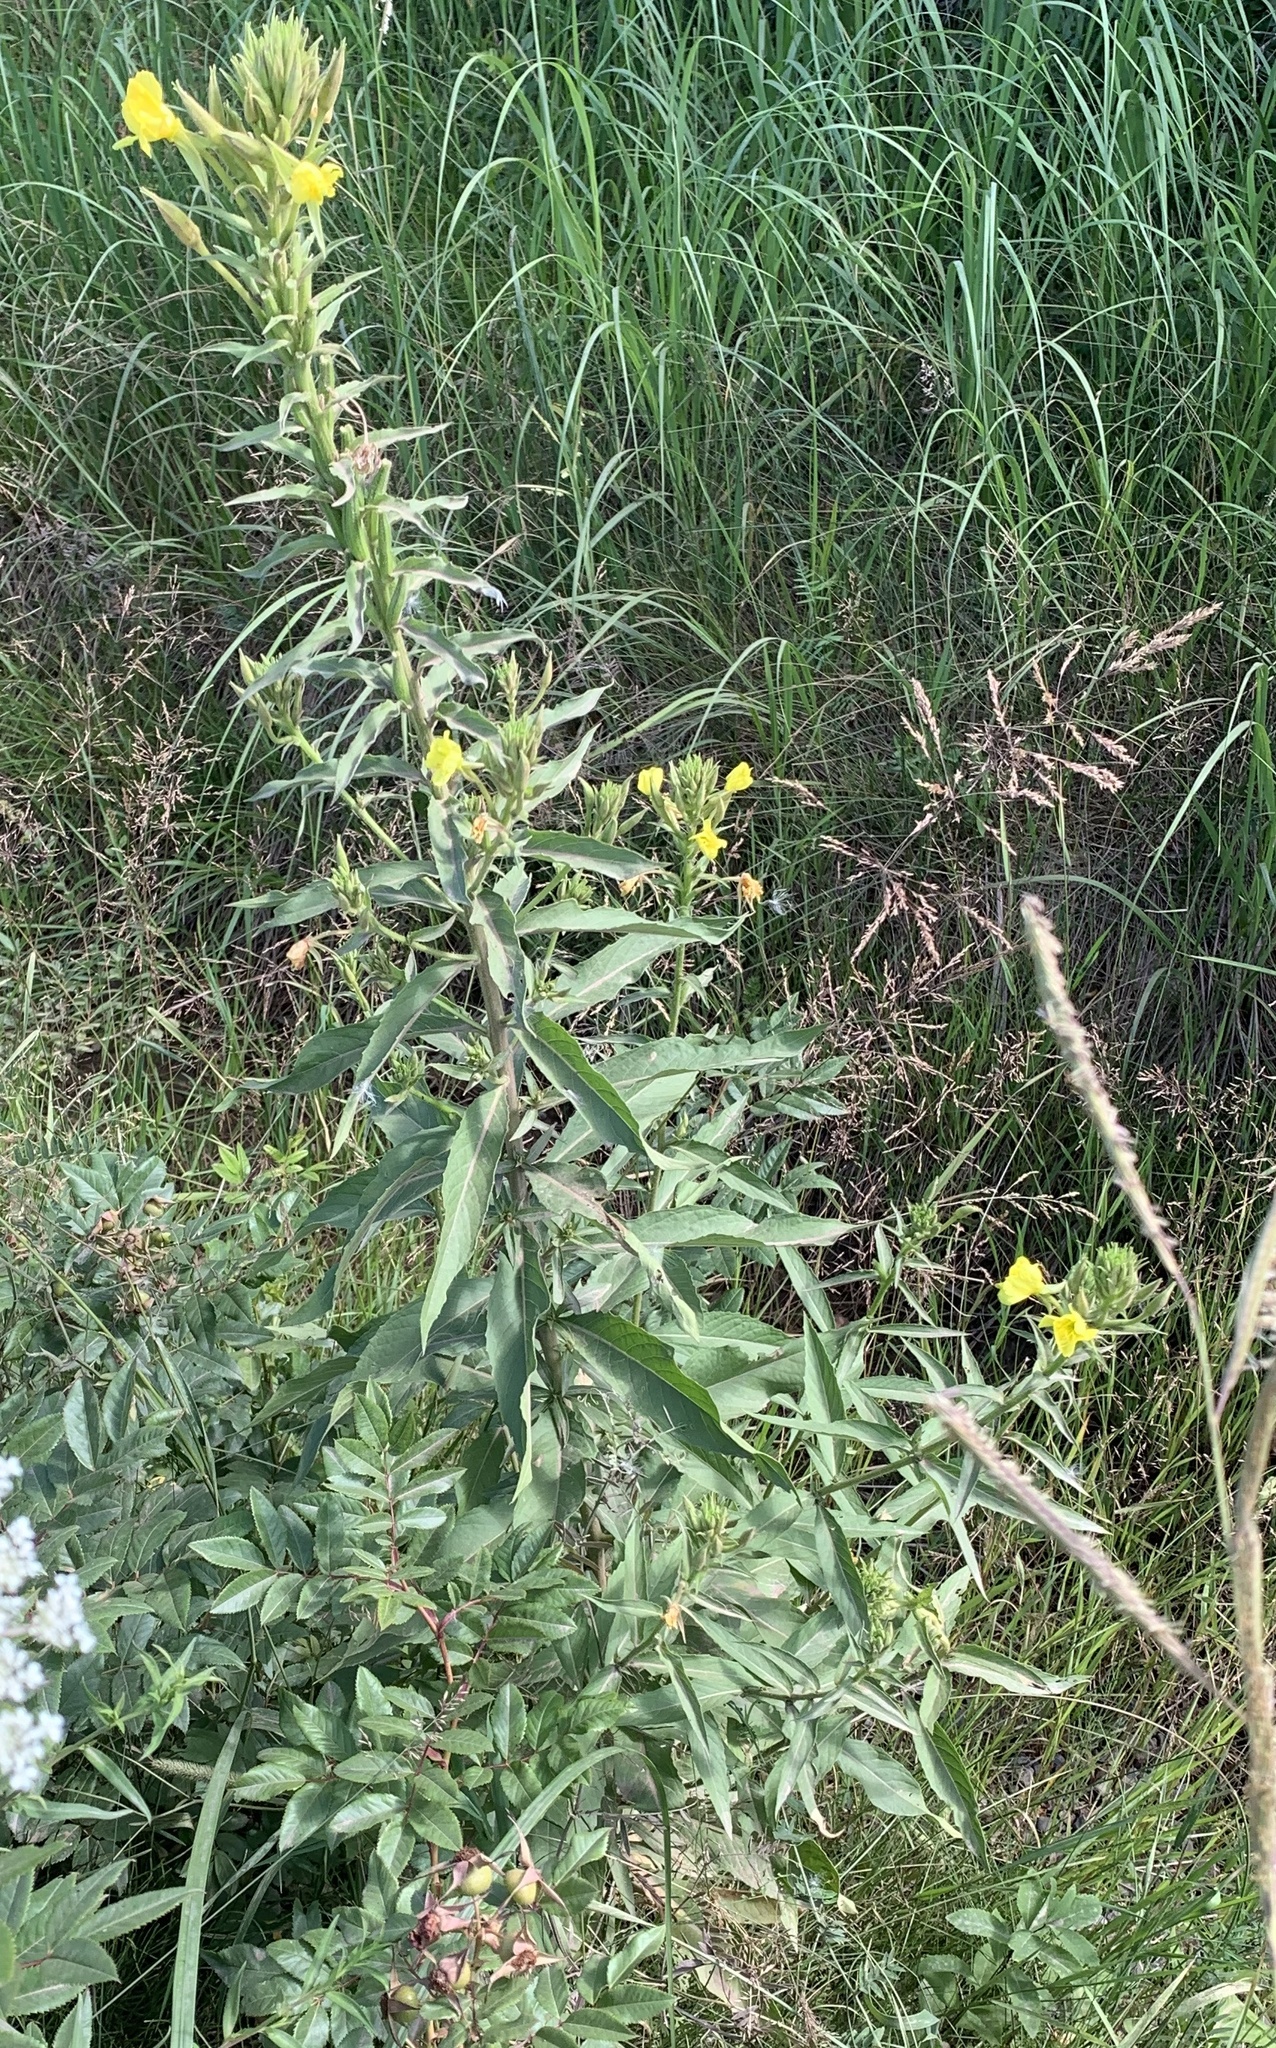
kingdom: Plantae
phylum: Tracheophyta
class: Magnoliopsida
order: Myrtales
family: Onagraceae
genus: Oenothera
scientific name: Oenothera biennis
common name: Common evening-primrose
